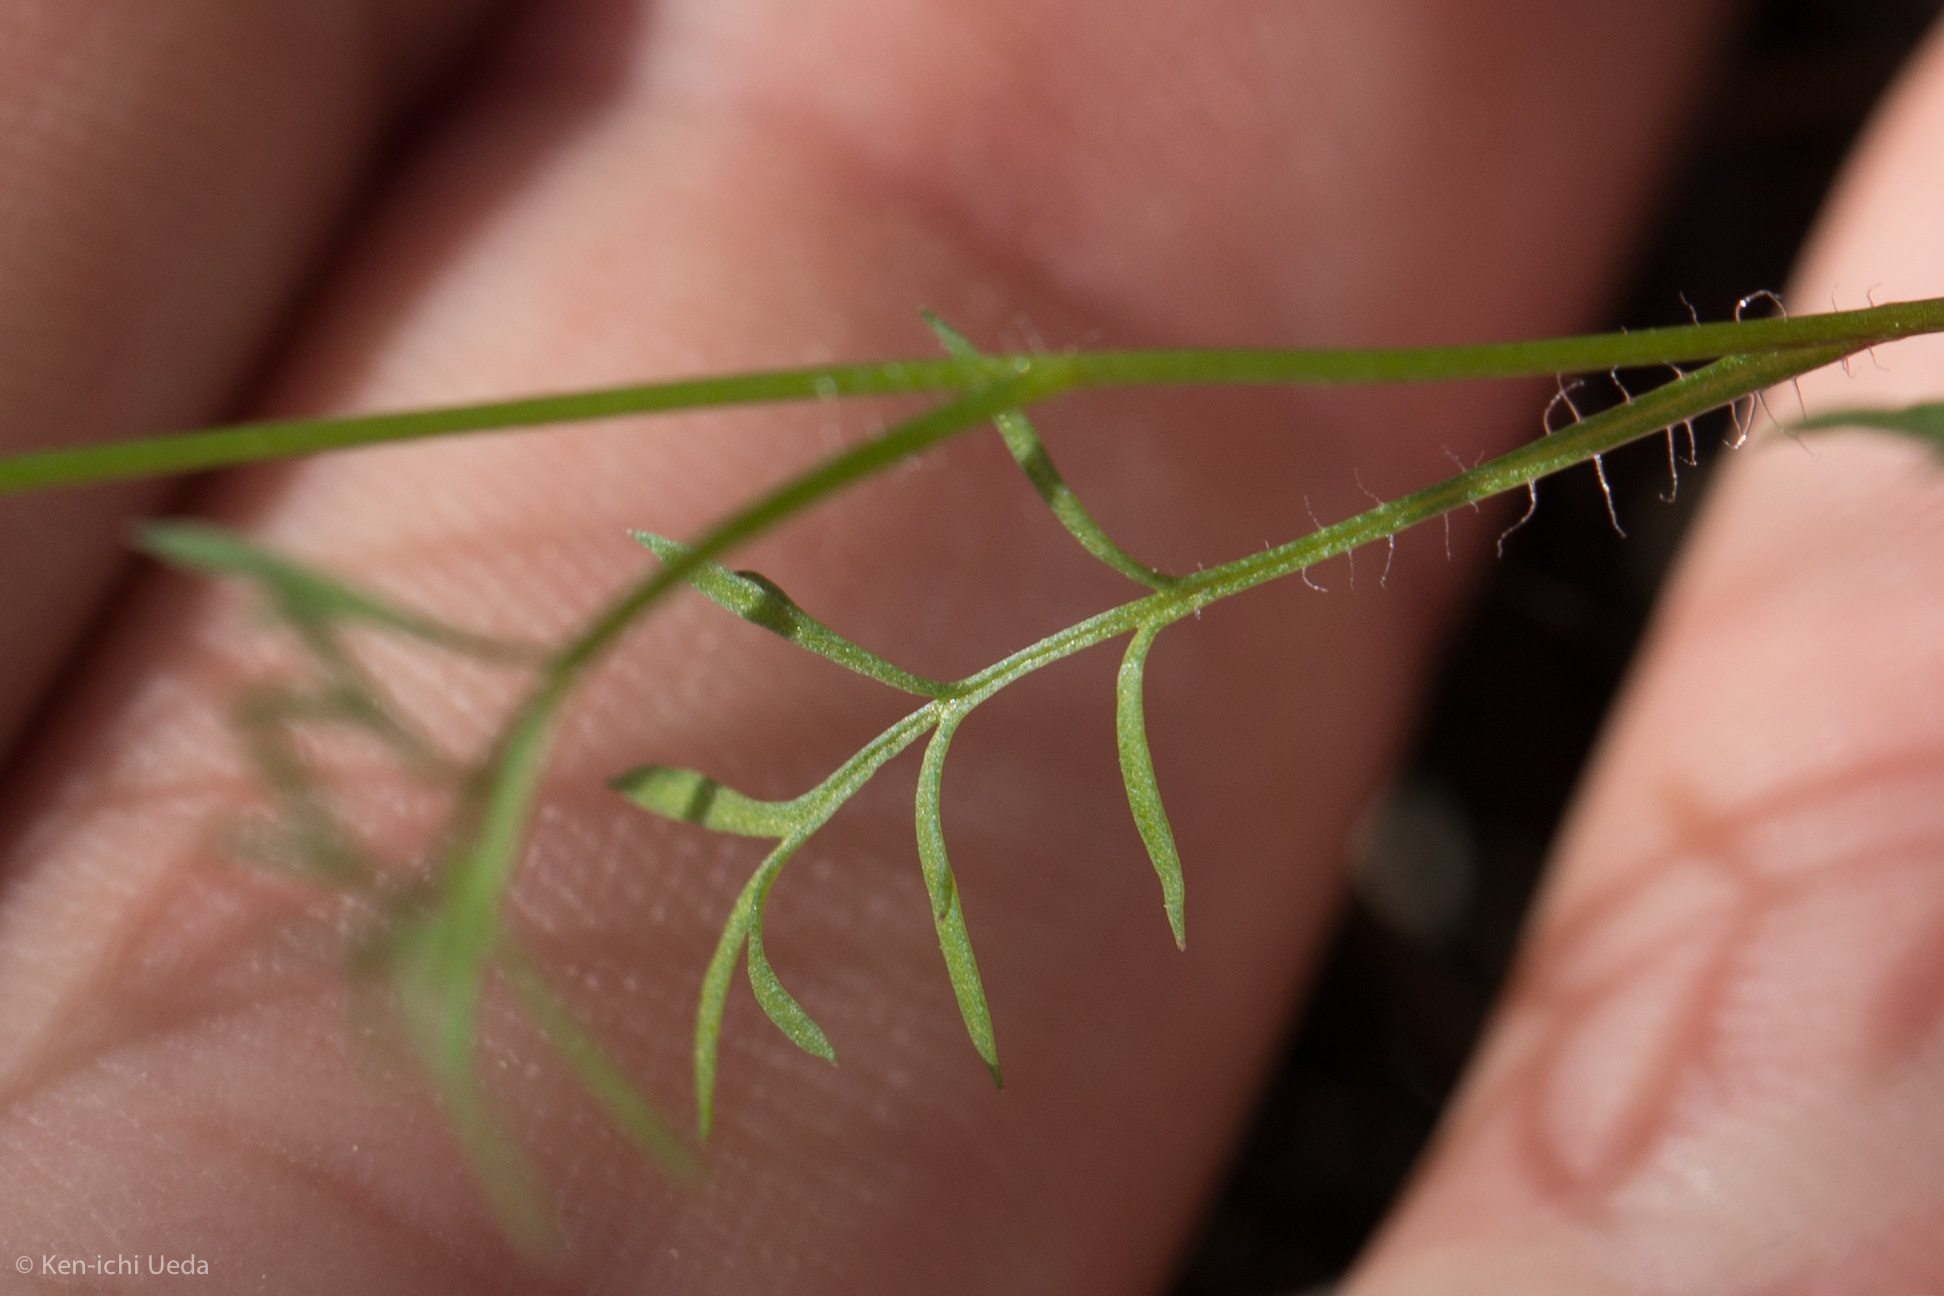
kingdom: Plantae
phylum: Tracheophyta
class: Magnoliopsida
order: Ericales
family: Polemoniaceae
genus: Gilia
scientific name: Gilia achilleifolia
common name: California gily-flower
